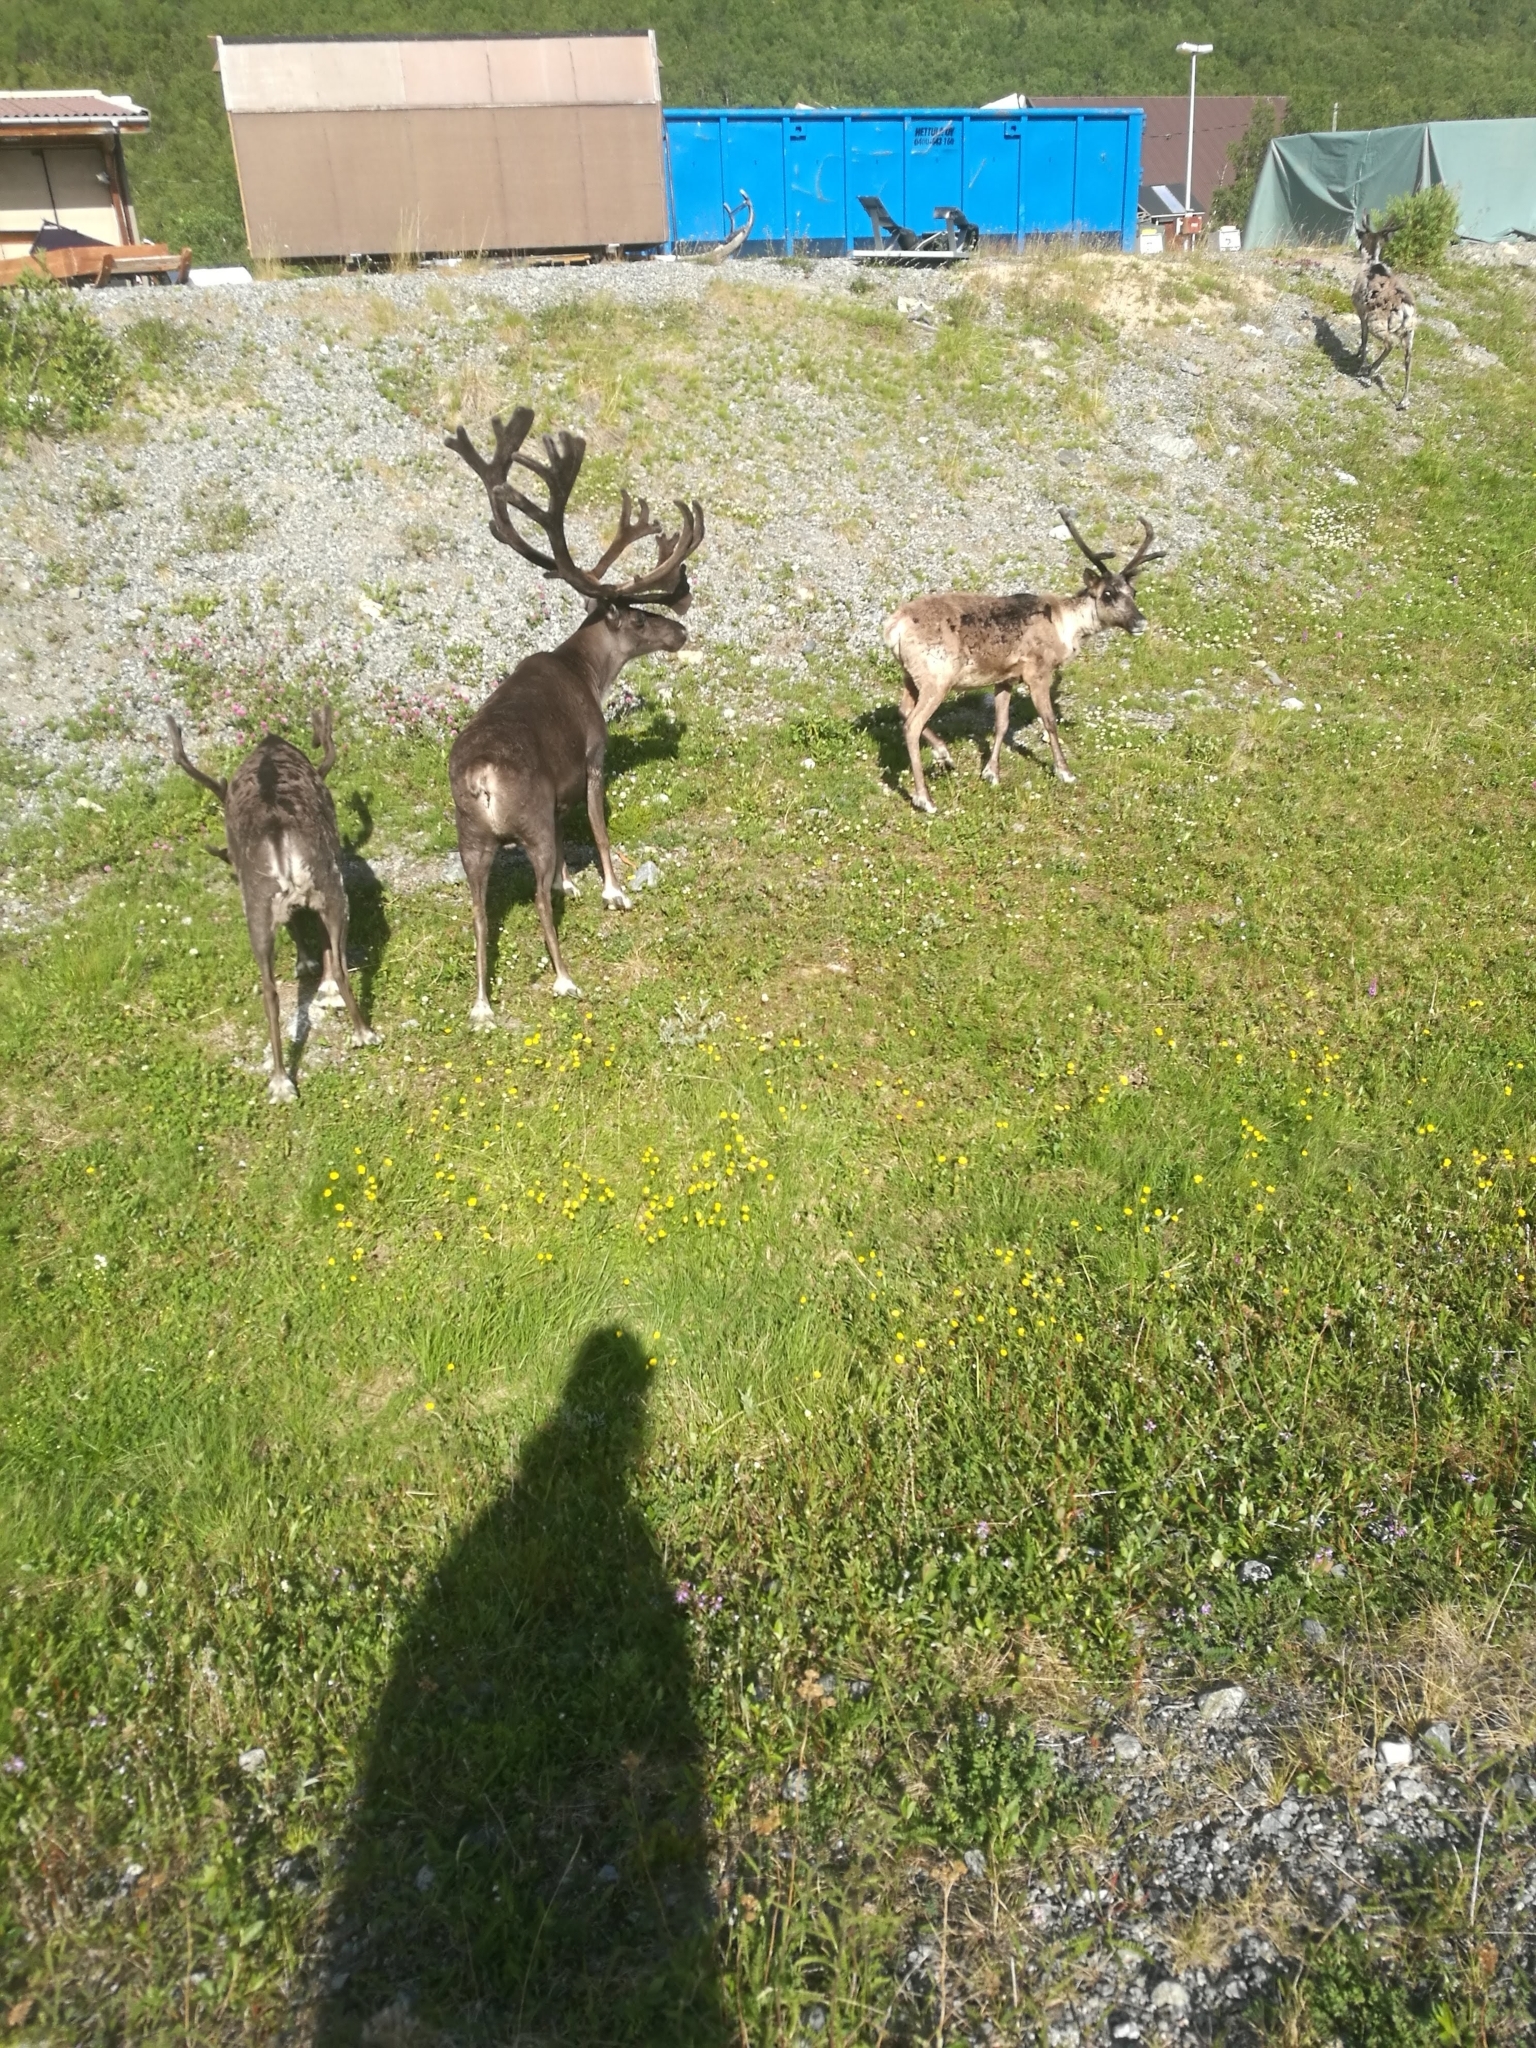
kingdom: Animalia
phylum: Chordata
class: Mammalia
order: Artiodactyla
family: Cervidae
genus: Rangifer
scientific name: Rangifer tarandus
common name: Reindeer
